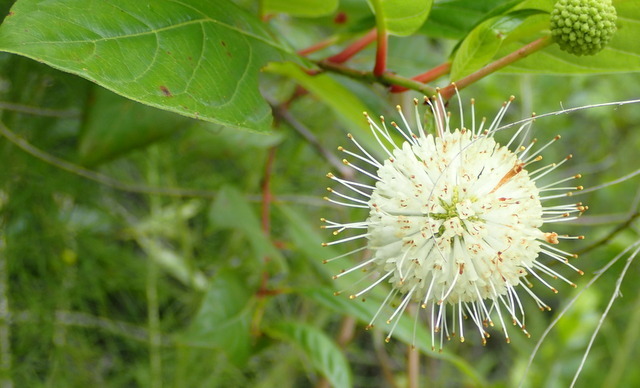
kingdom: Plantae
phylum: Tracheophyta
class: Magnoliopsida
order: Gentianales
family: Rubiaceae
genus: Cephalanthus
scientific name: Cephalanthus occidentalis
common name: Button-willow
